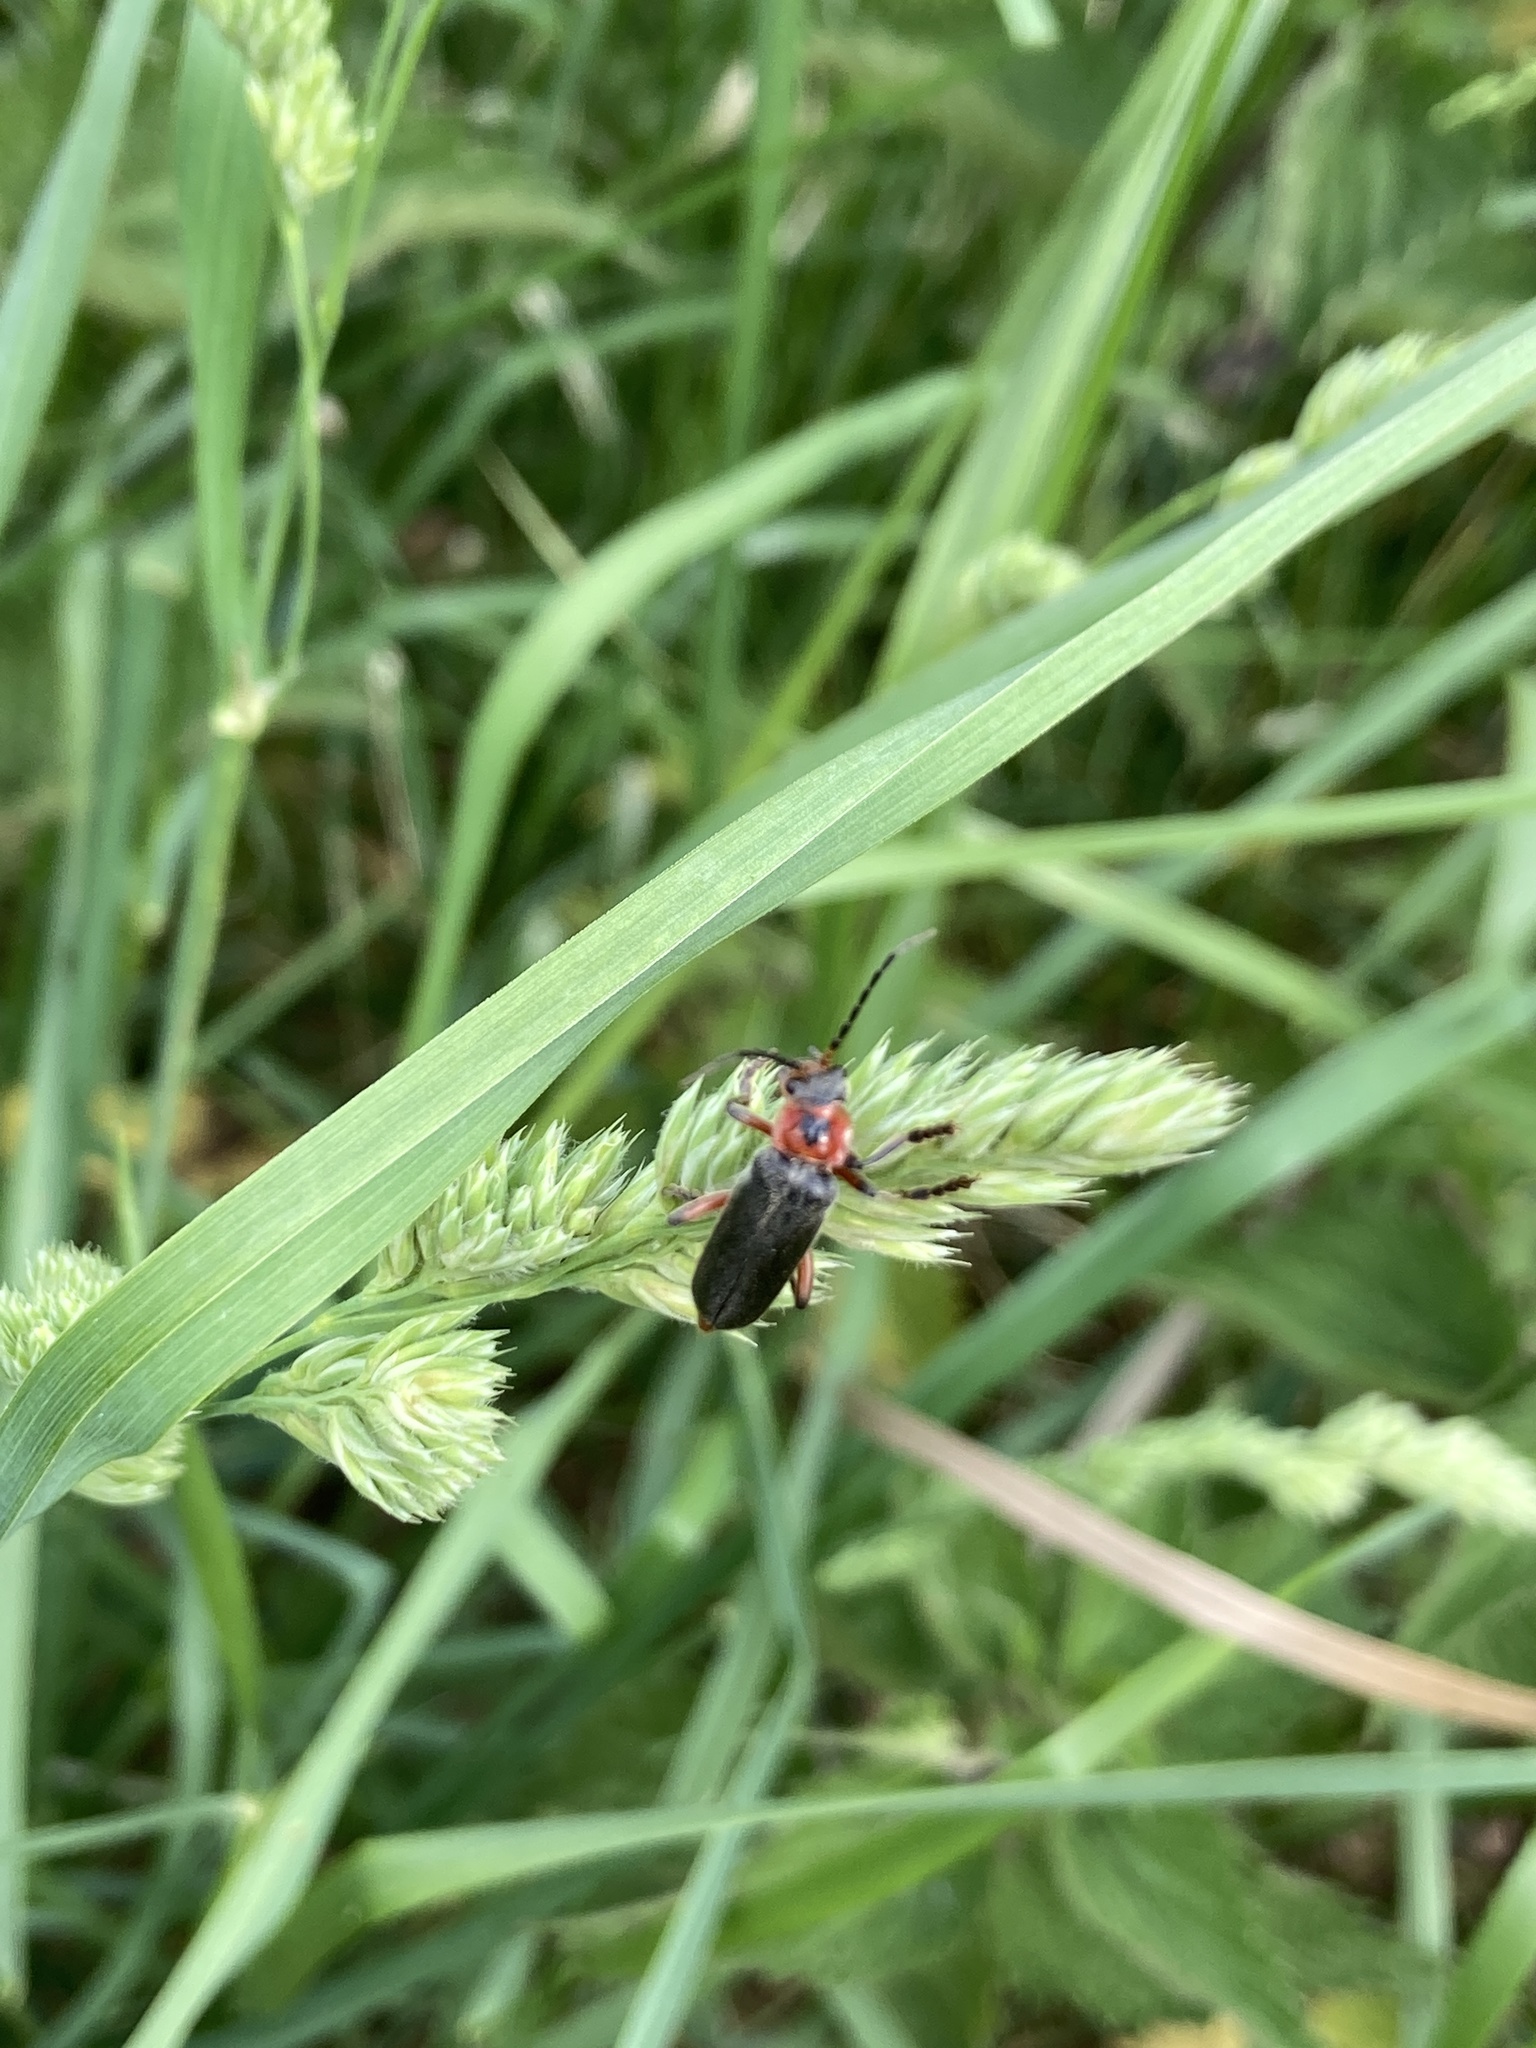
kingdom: Animalia
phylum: Arthropoda
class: Insecta
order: Coleoptera
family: Cantharidae
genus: Cantharis
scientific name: Cantharis rustica
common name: Soldier beetle
